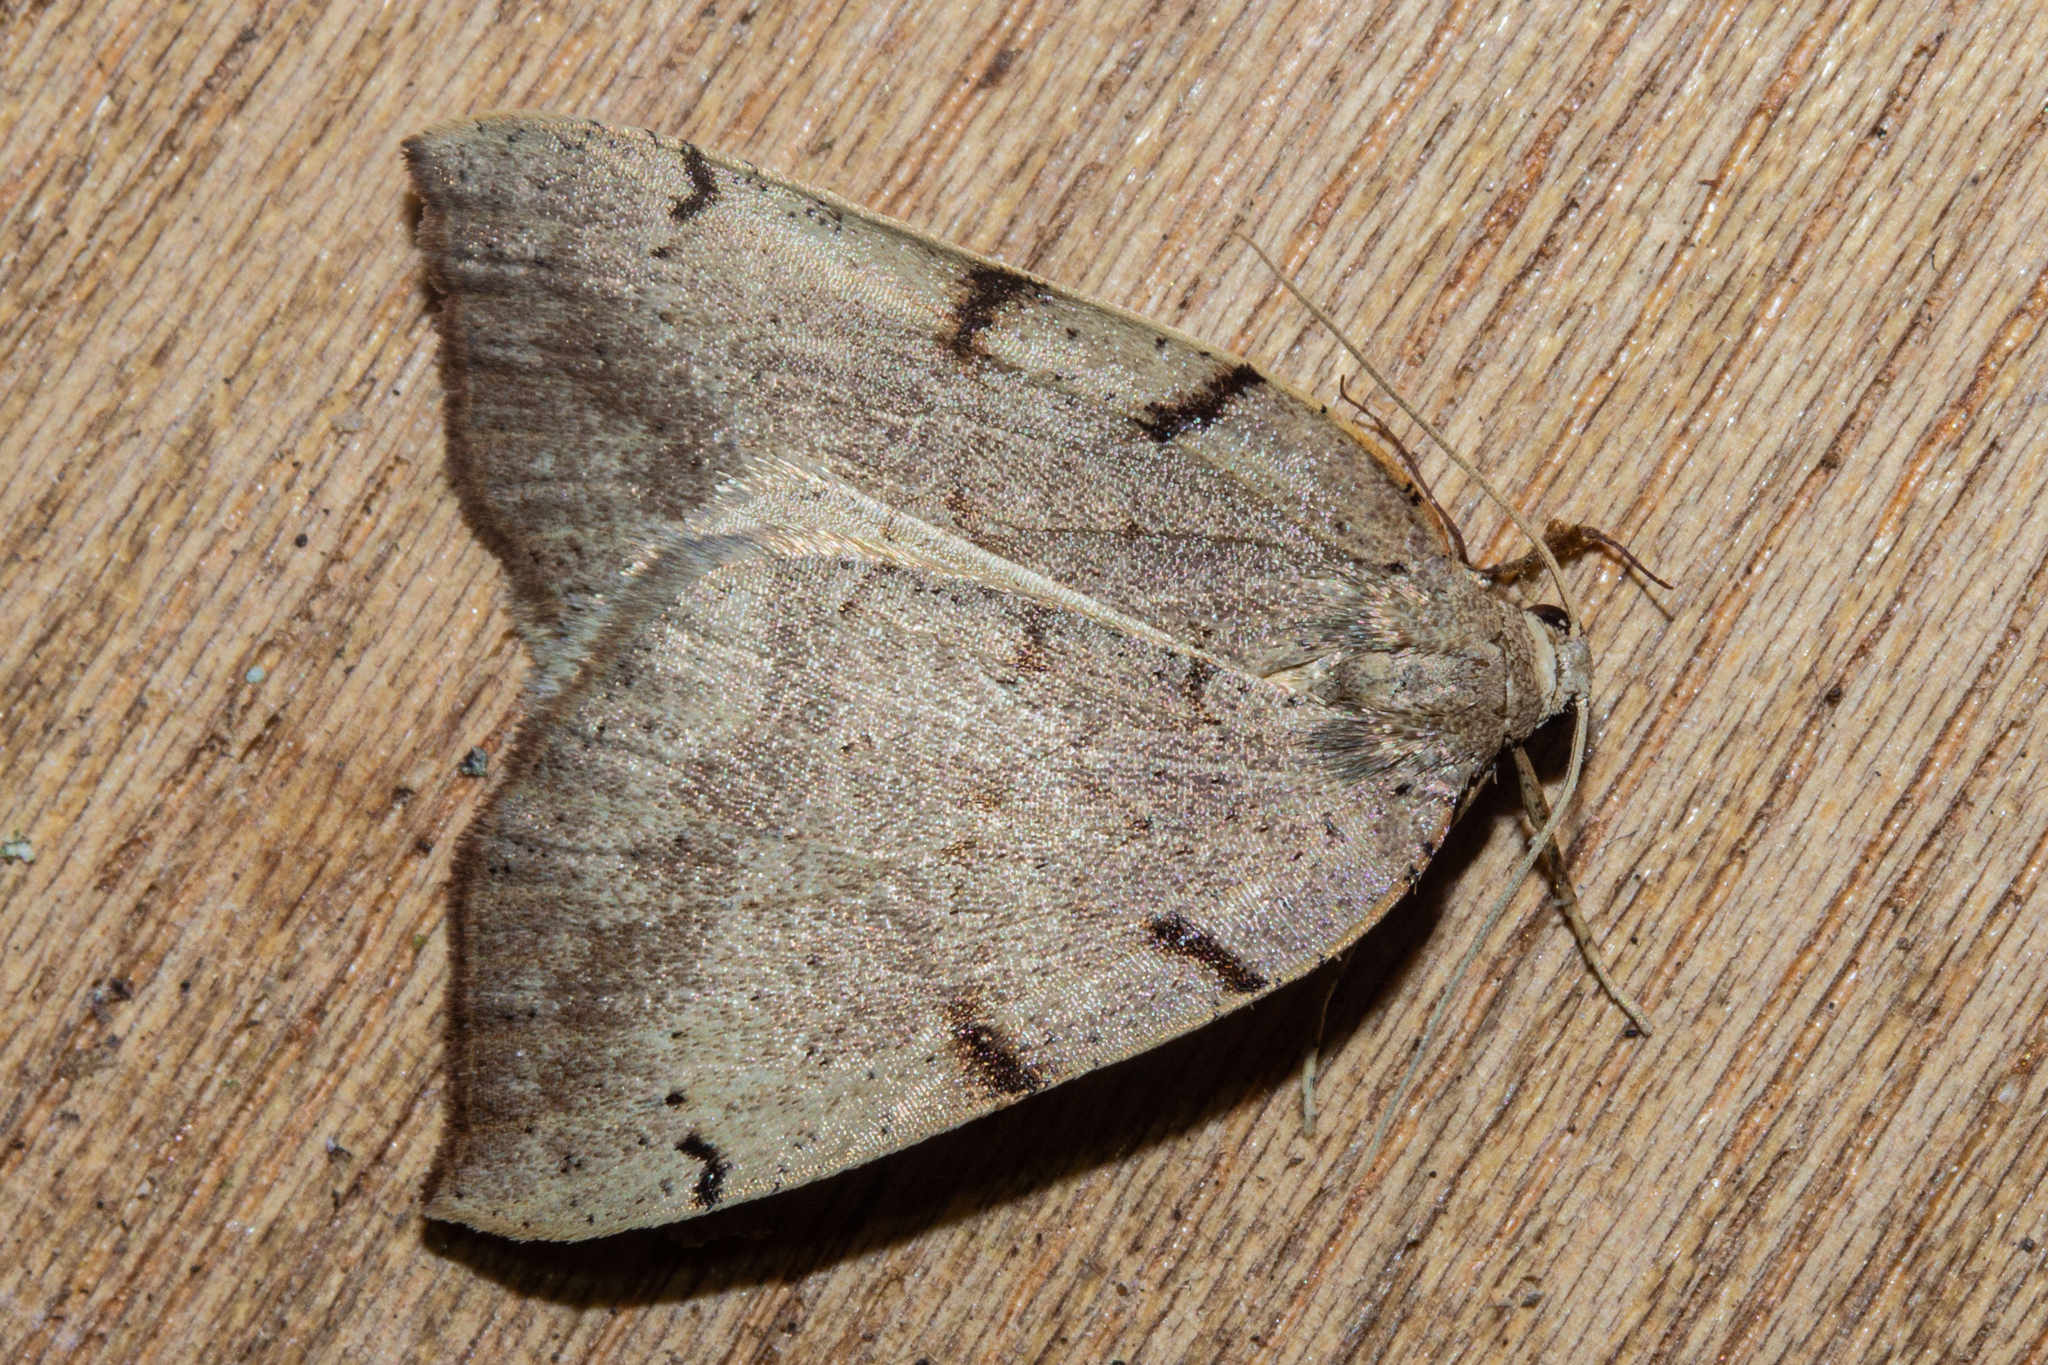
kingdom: Animalia
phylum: Arthropoda
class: Insecta
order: Lepidoptera
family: Geometridae
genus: Sestra
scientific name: Sestra humeraria
